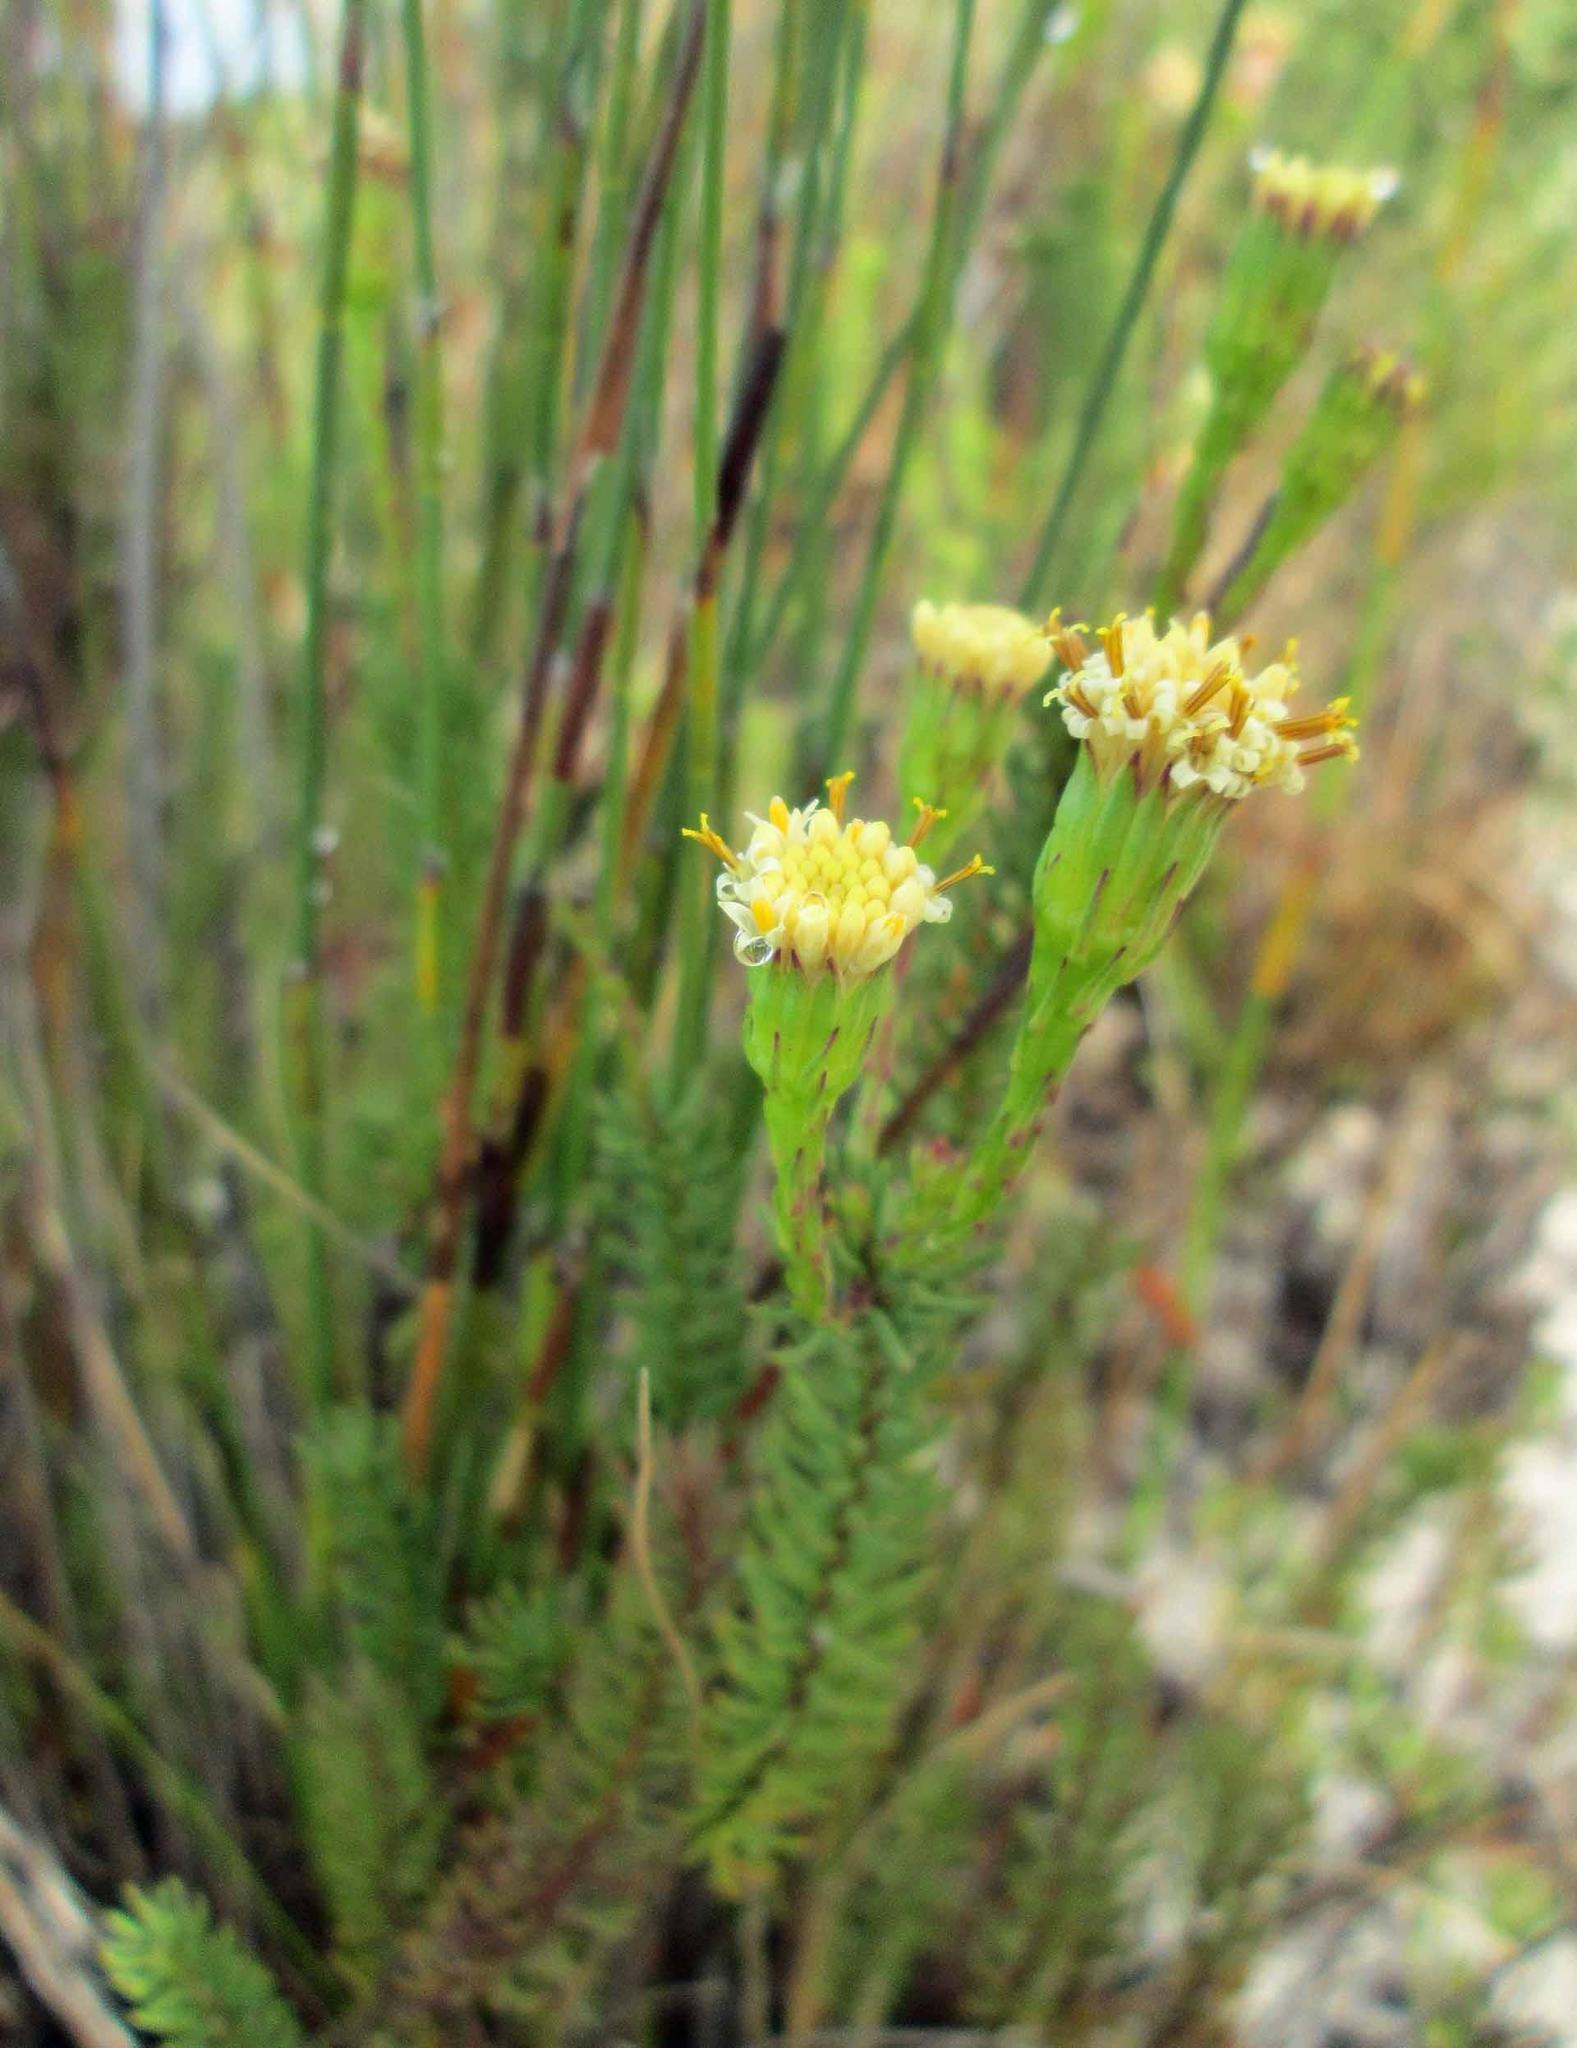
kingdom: Plantae
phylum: Tracheophyta
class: Magnoliopsida
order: Asterales
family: Asteraceae
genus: Senecio
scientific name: Senecio triqueter
